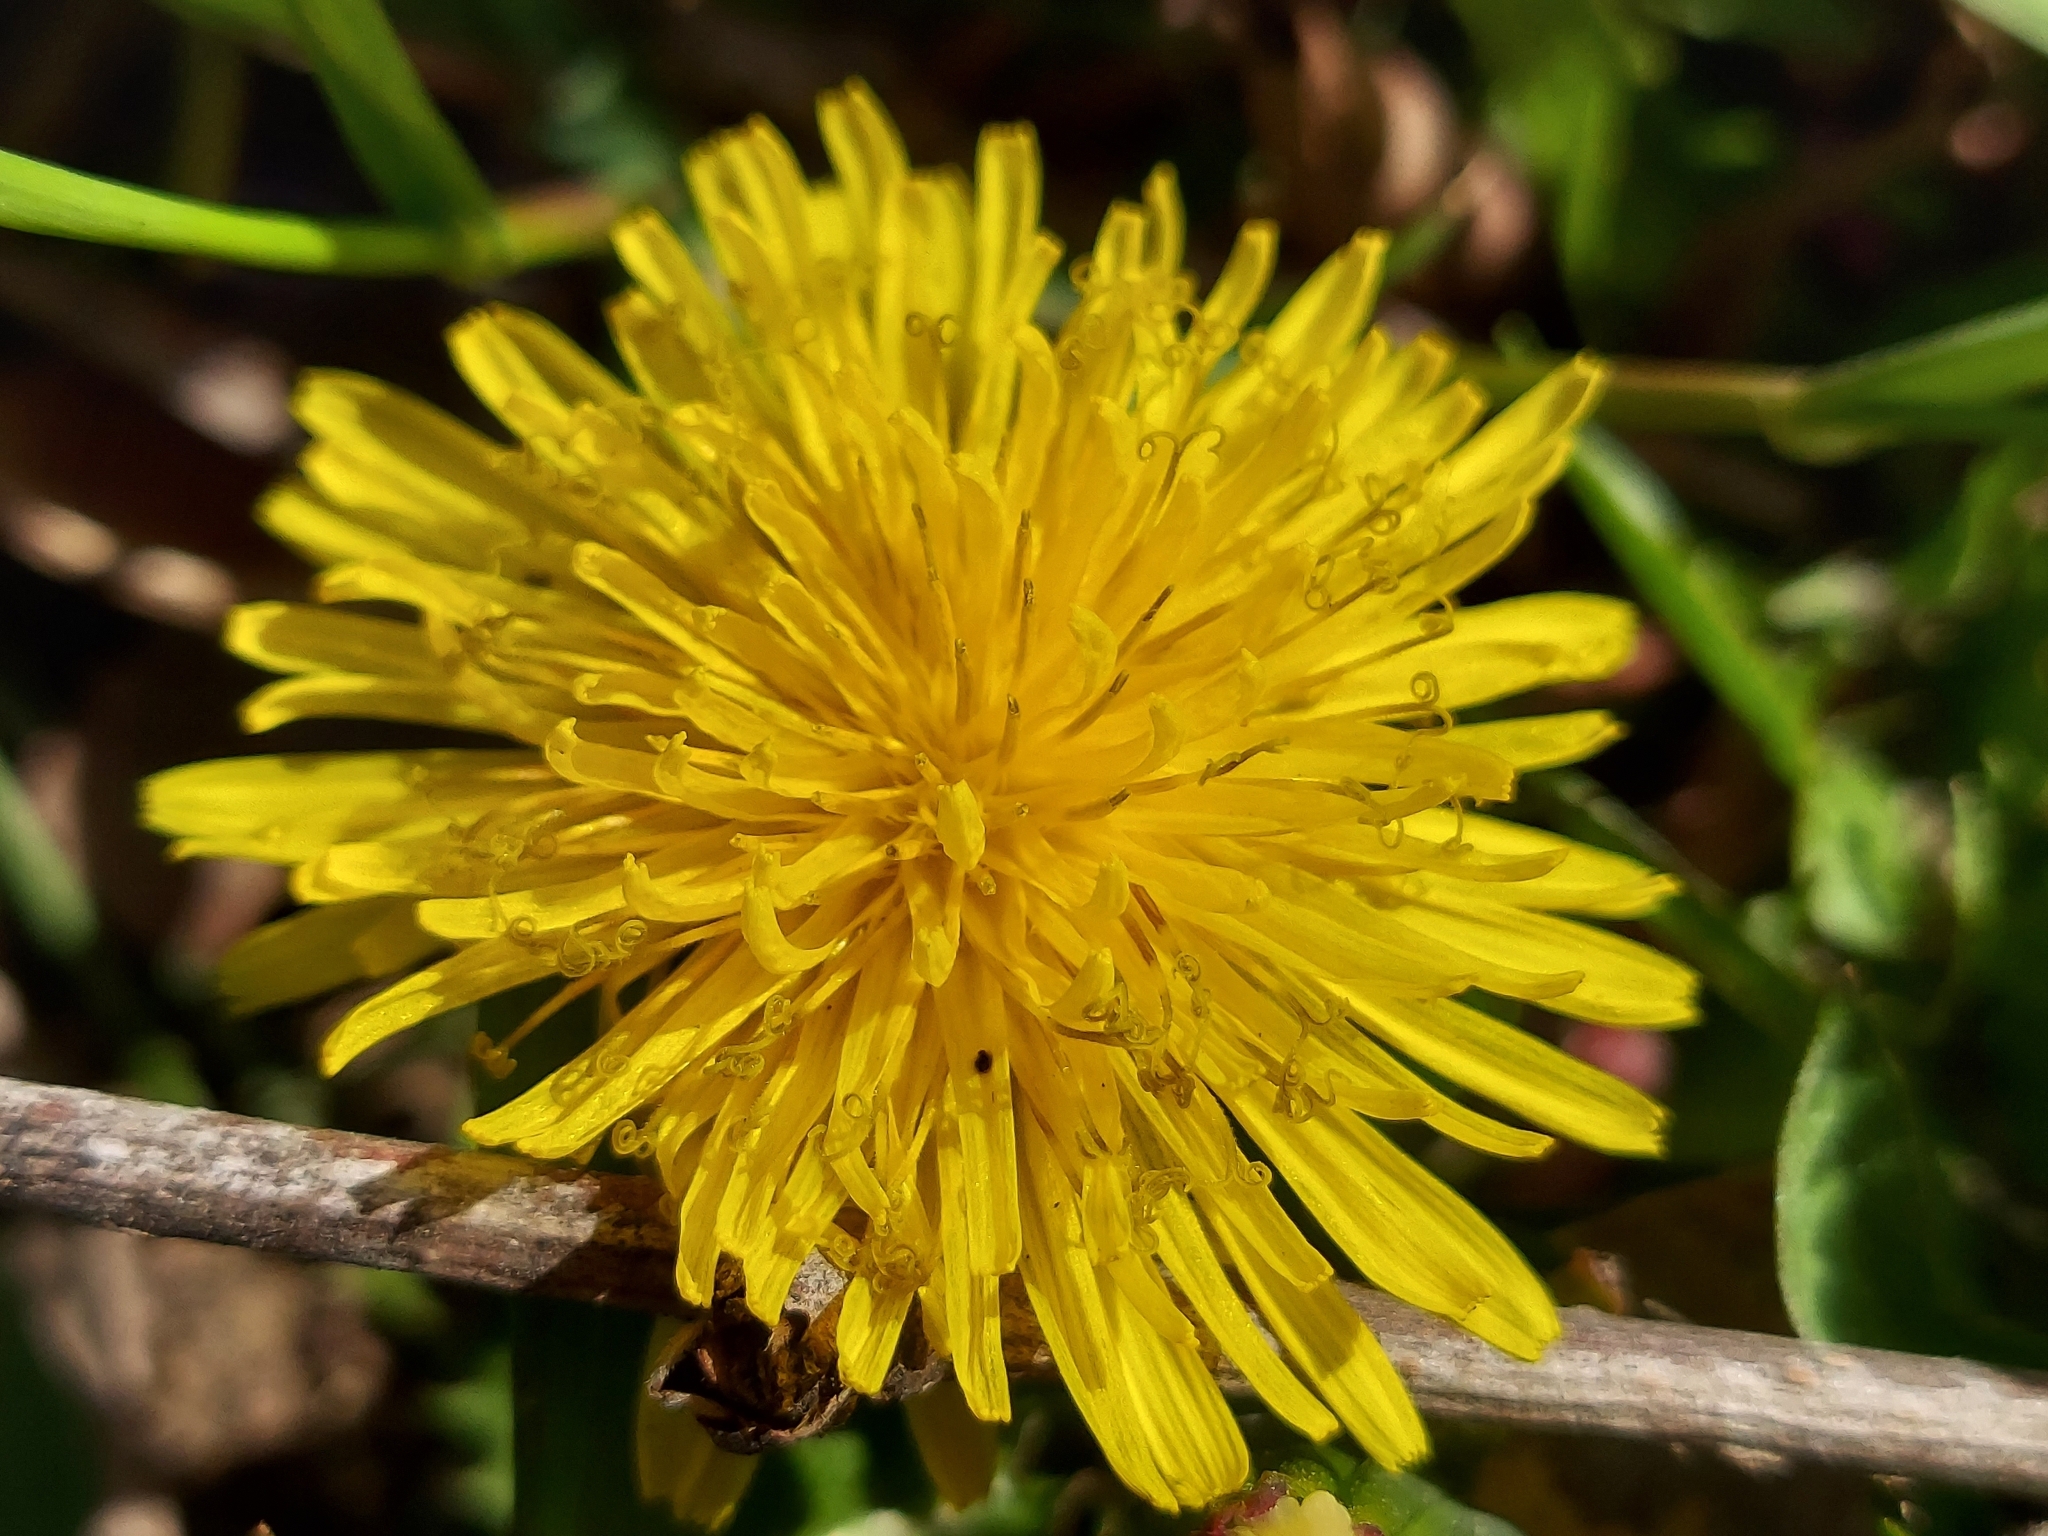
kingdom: Plantae
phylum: Tracheophyta
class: Magnoliopsida
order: Asterales
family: Asteraceae
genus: Taraxacum
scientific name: Taraxacum officinale
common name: Common dandelion
